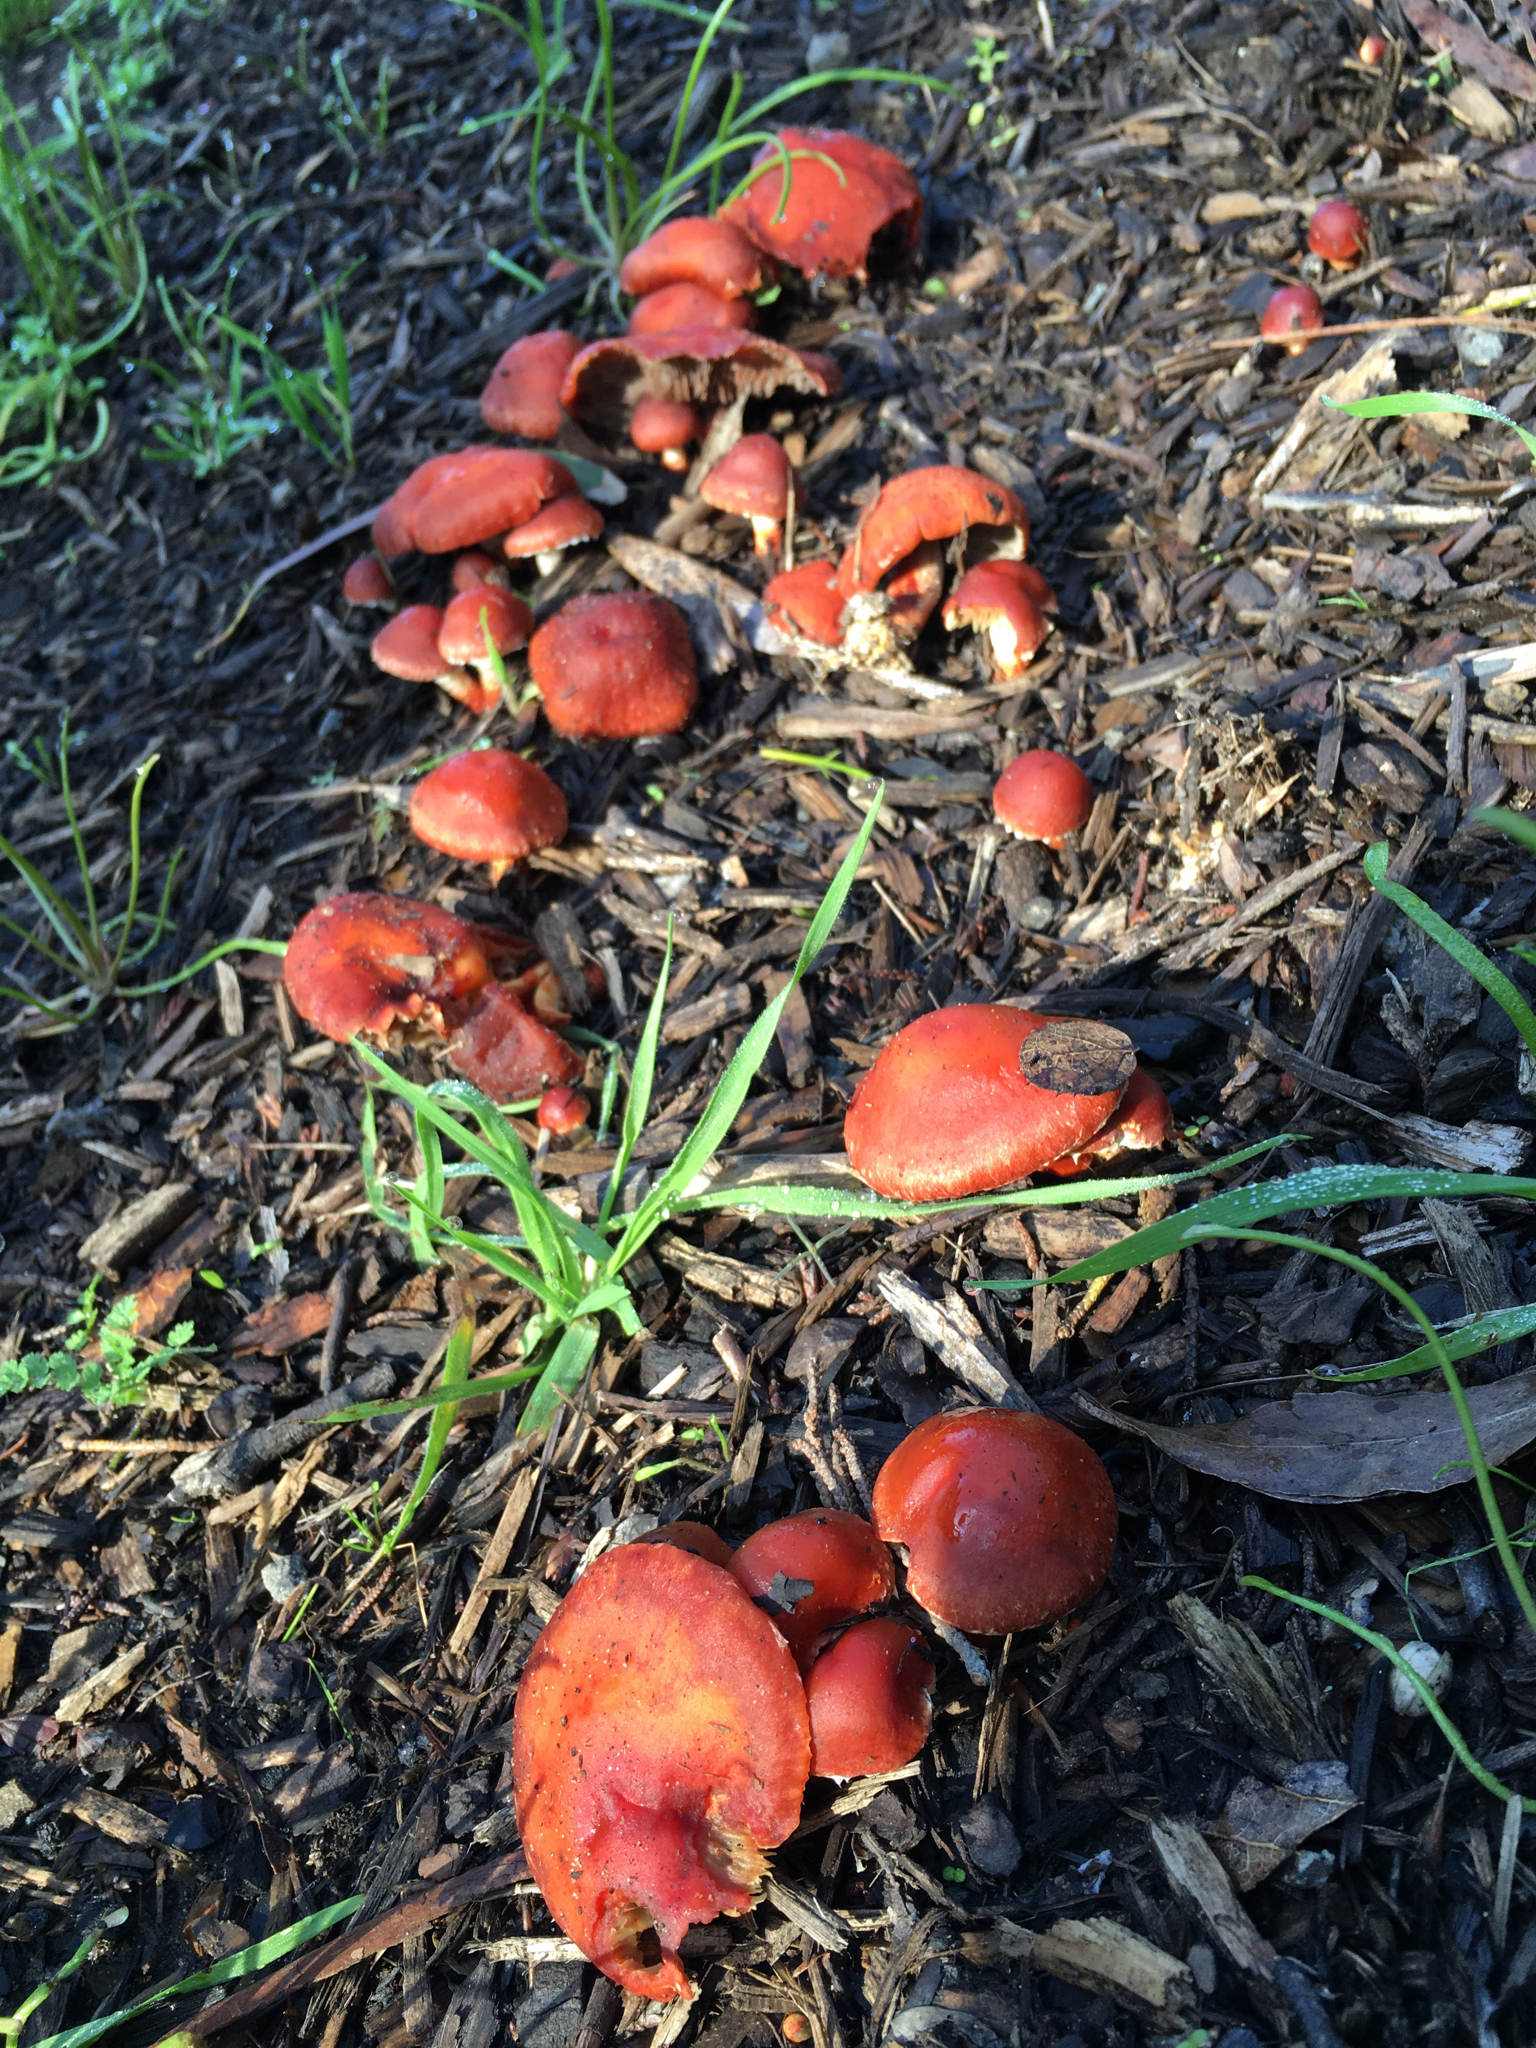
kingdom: Fungi
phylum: Basidiomycota
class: Agaricomycetes
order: Agaricales
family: Strophariaceae
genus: Leratiomyces
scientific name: Leratiomyces ceres
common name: Redlead roundhead
